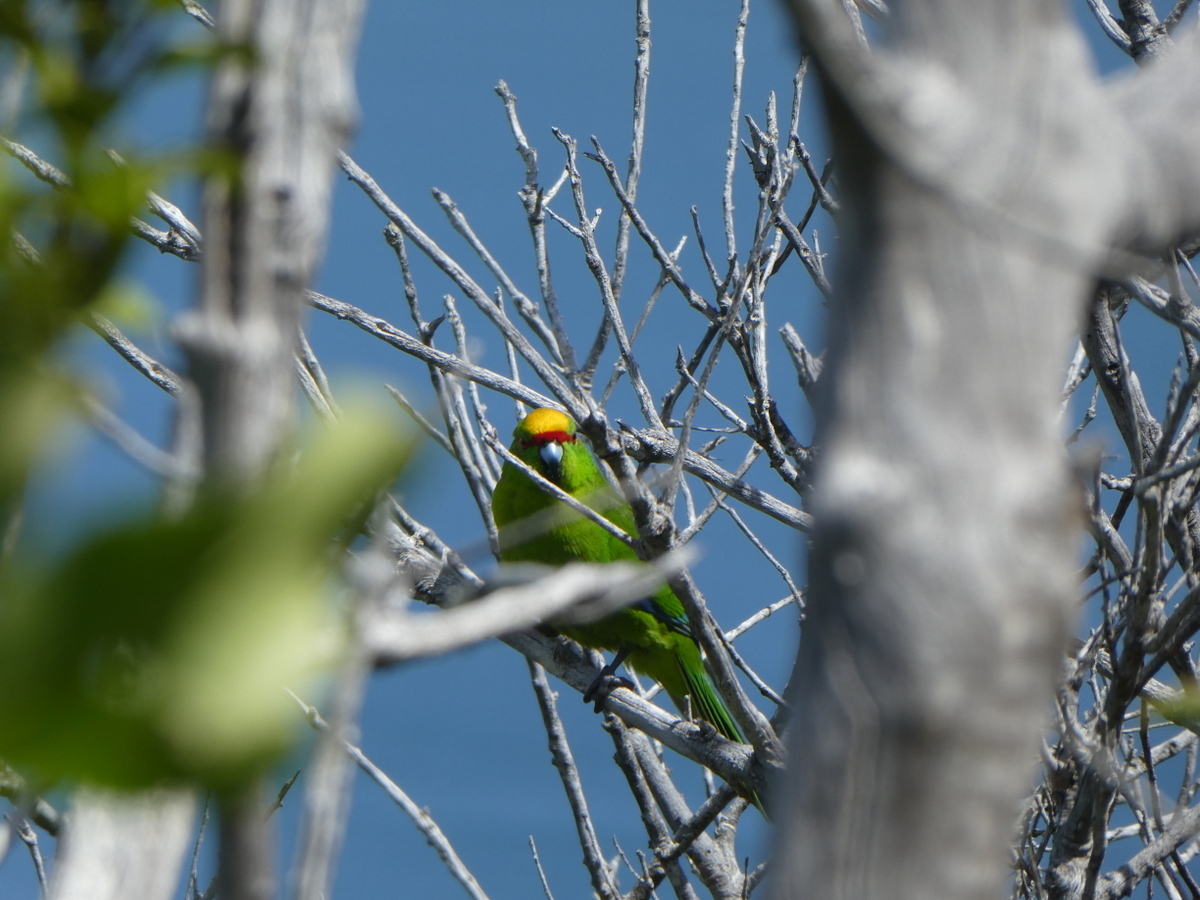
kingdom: Animalia
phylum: Chordata
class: Aves
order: Psittaciformes
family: Psittacidae
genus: Cyanoramphus
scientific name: Cyanoramphus auriceps
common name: Yellow-crowned parakeet
